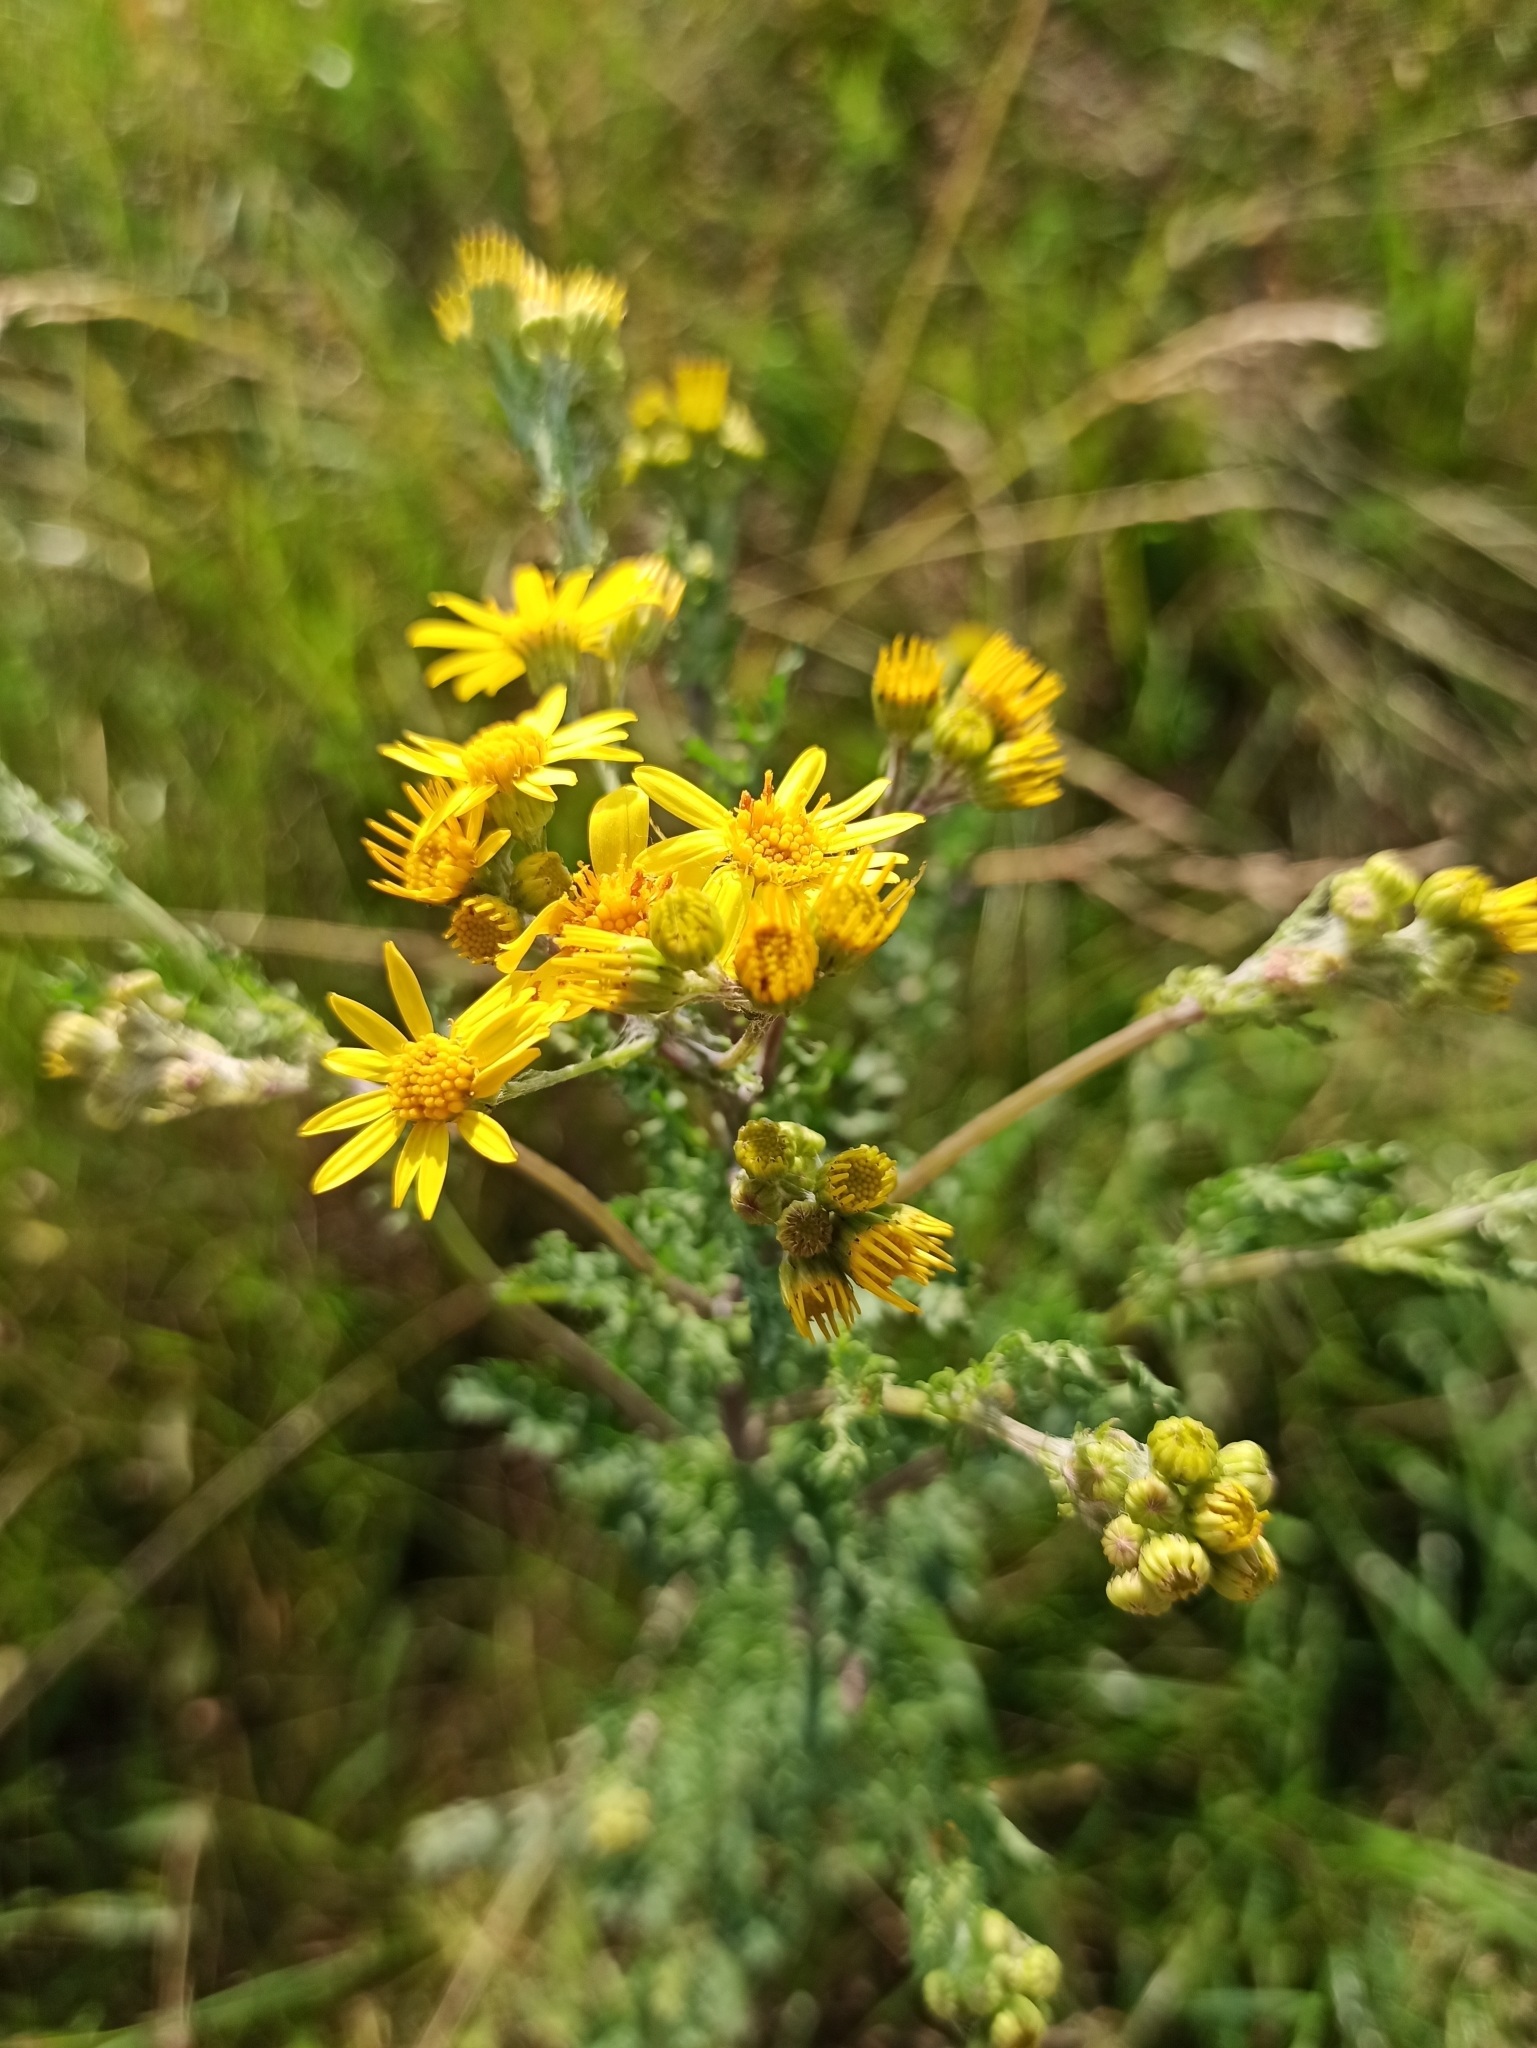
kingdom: Plantae
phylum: Tracheophyta
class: Magnoliopsida
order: Asterales
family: Asteraceae
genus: Jacobaea
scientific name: Jacobaea vulgaris
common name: Stinking willie
